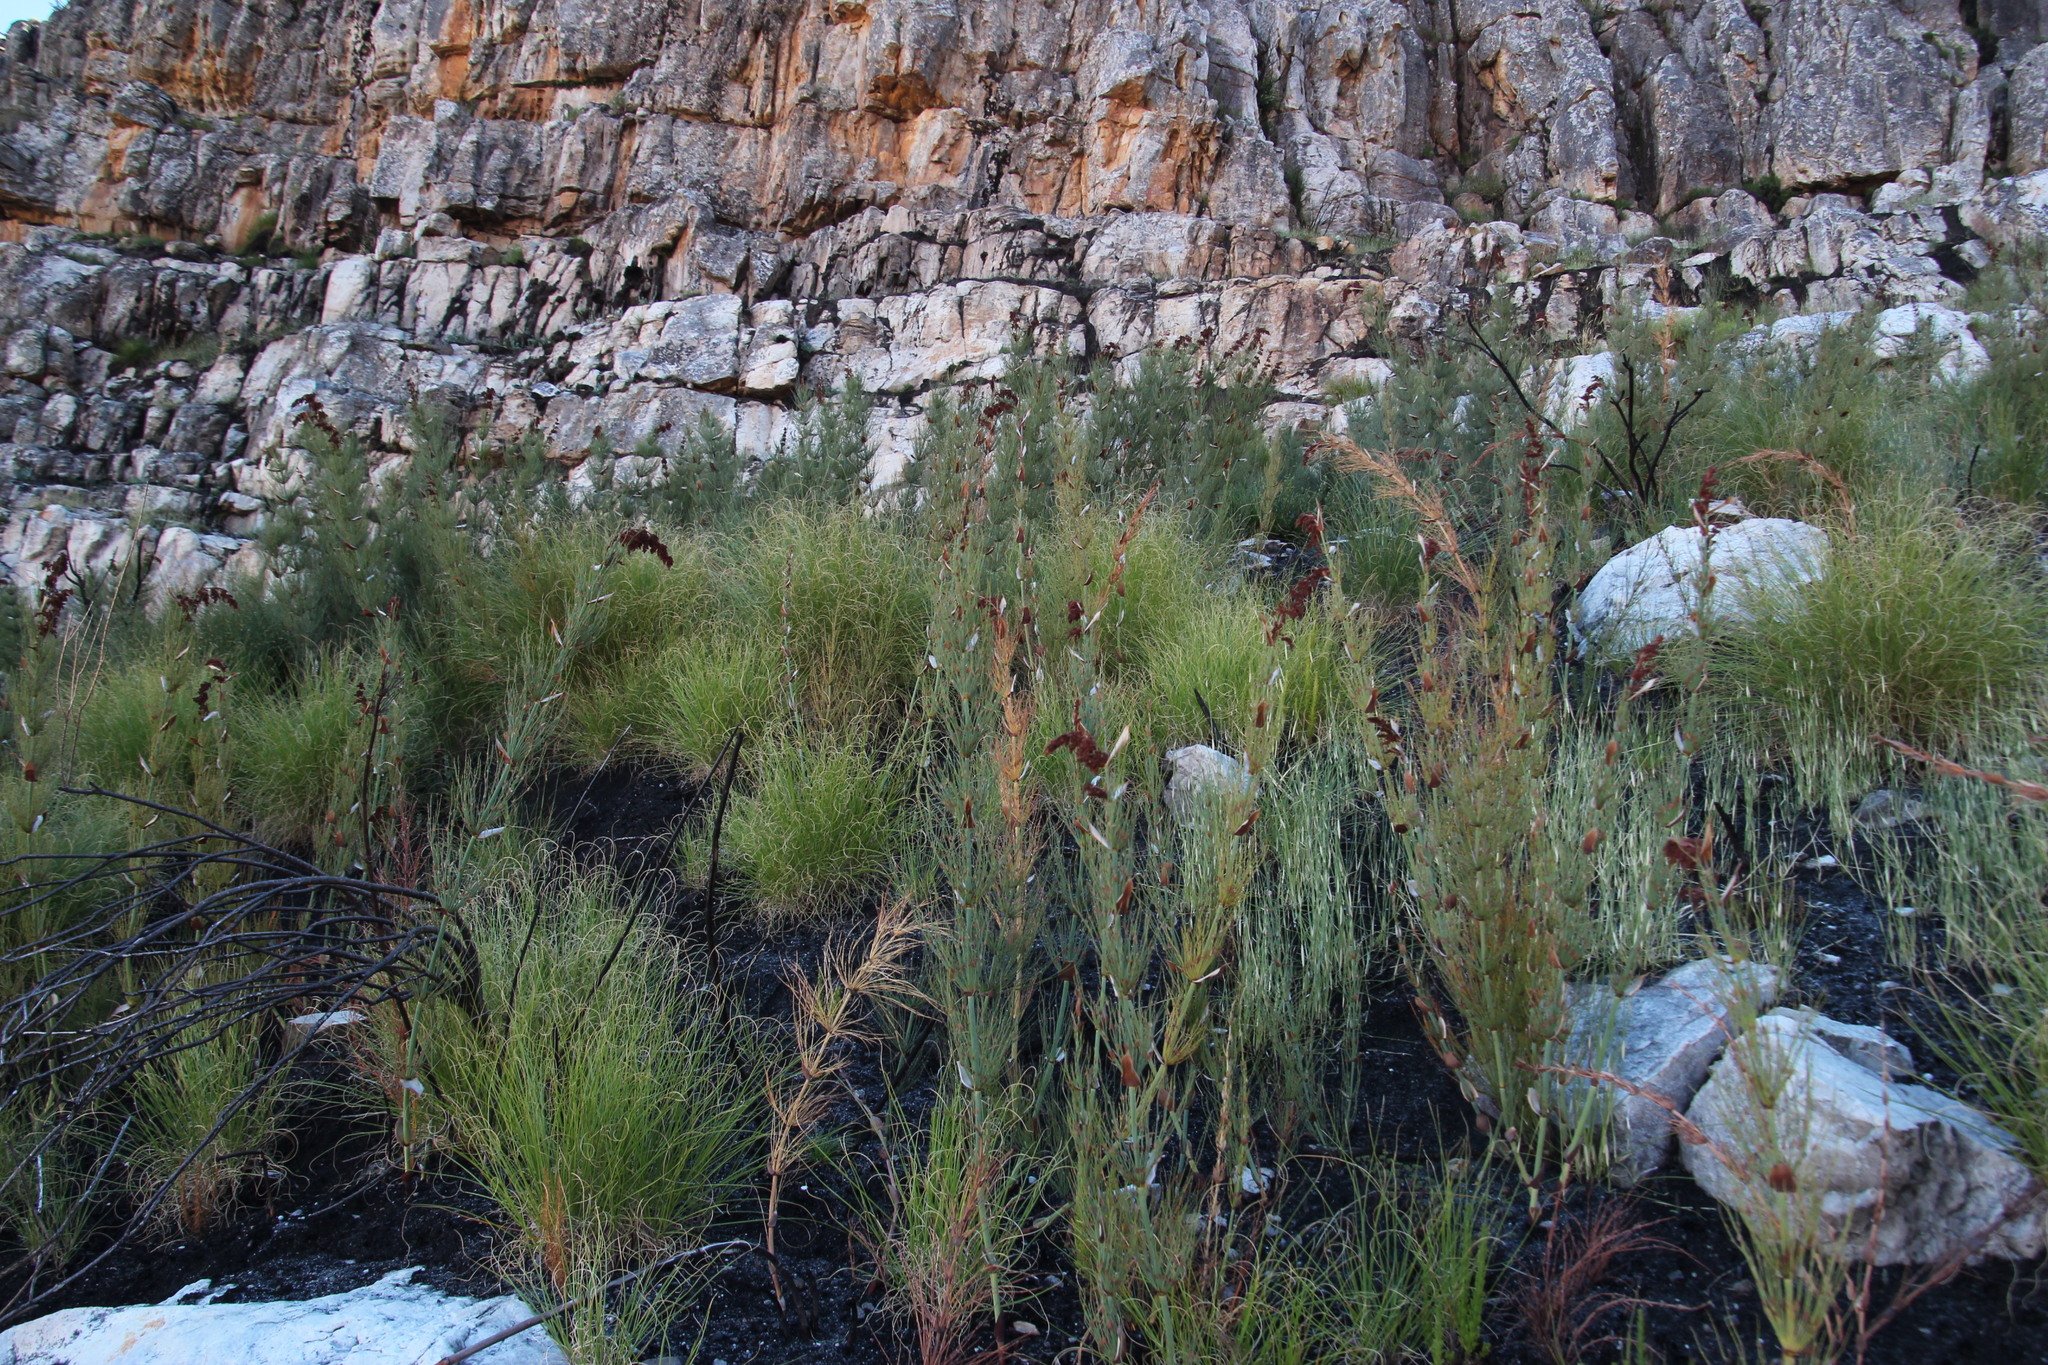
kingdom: Plantae
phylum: Tracheophyta
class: Liliopsida
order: Poales
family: Restionaceae
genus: Elegia
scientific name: Elegia capensis
